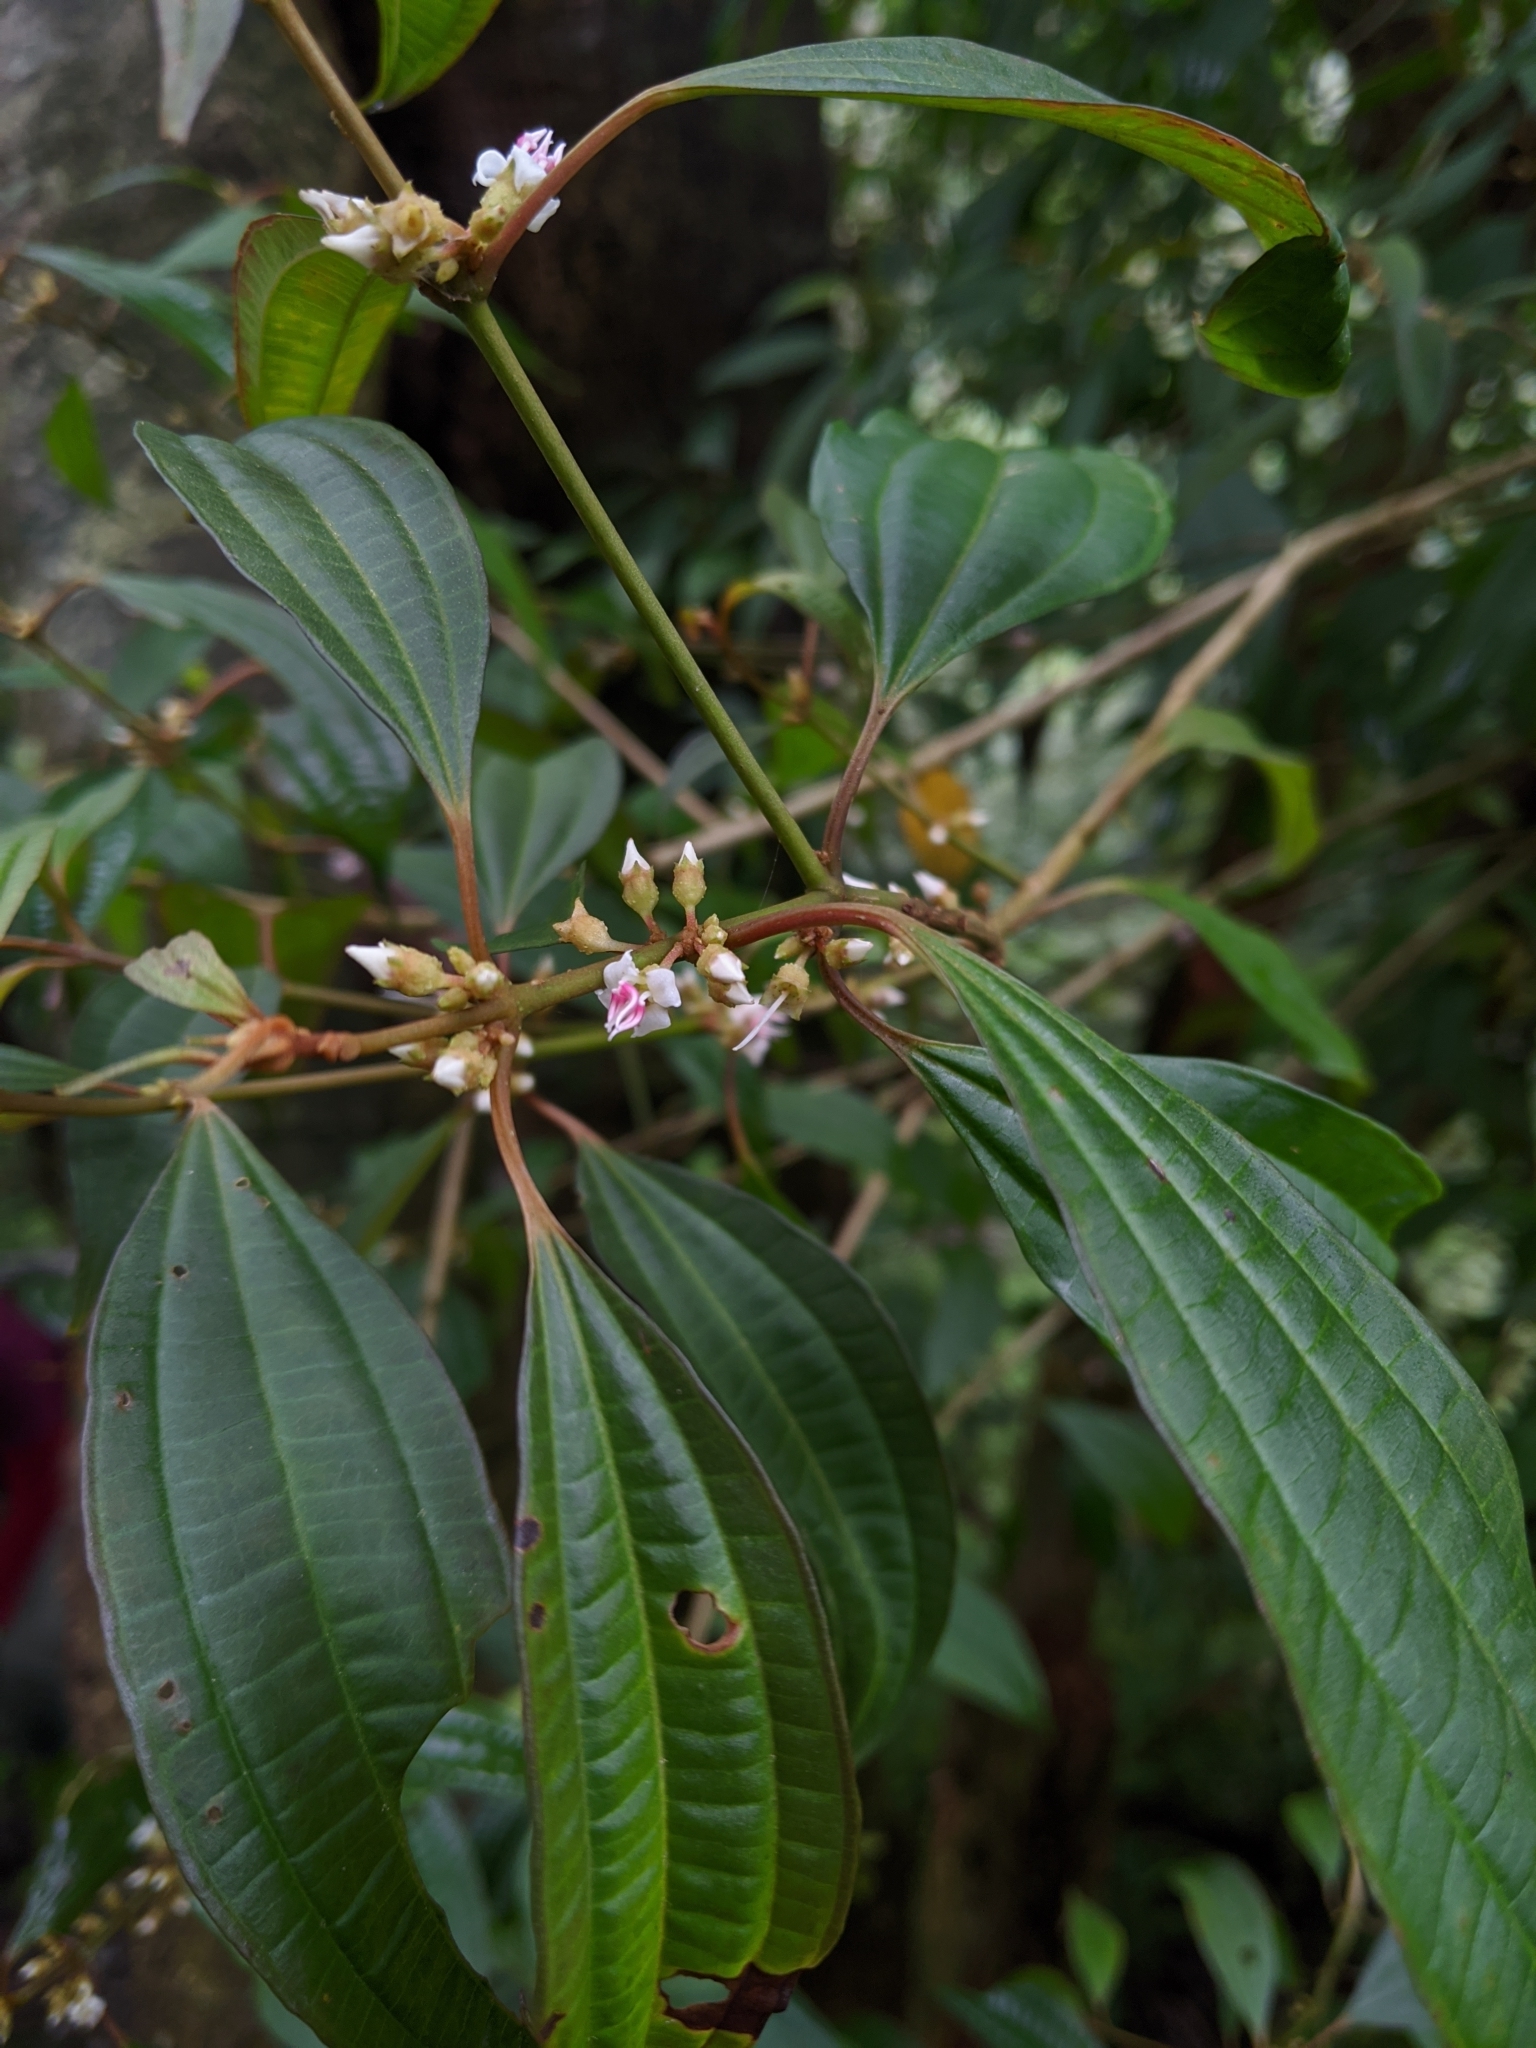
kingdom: Plantae
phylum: Tracheophyta
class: Magnoliopsida
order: Myrtales
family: Melastomataceae
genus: Blastus
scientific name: Blastus cochinchinensis
